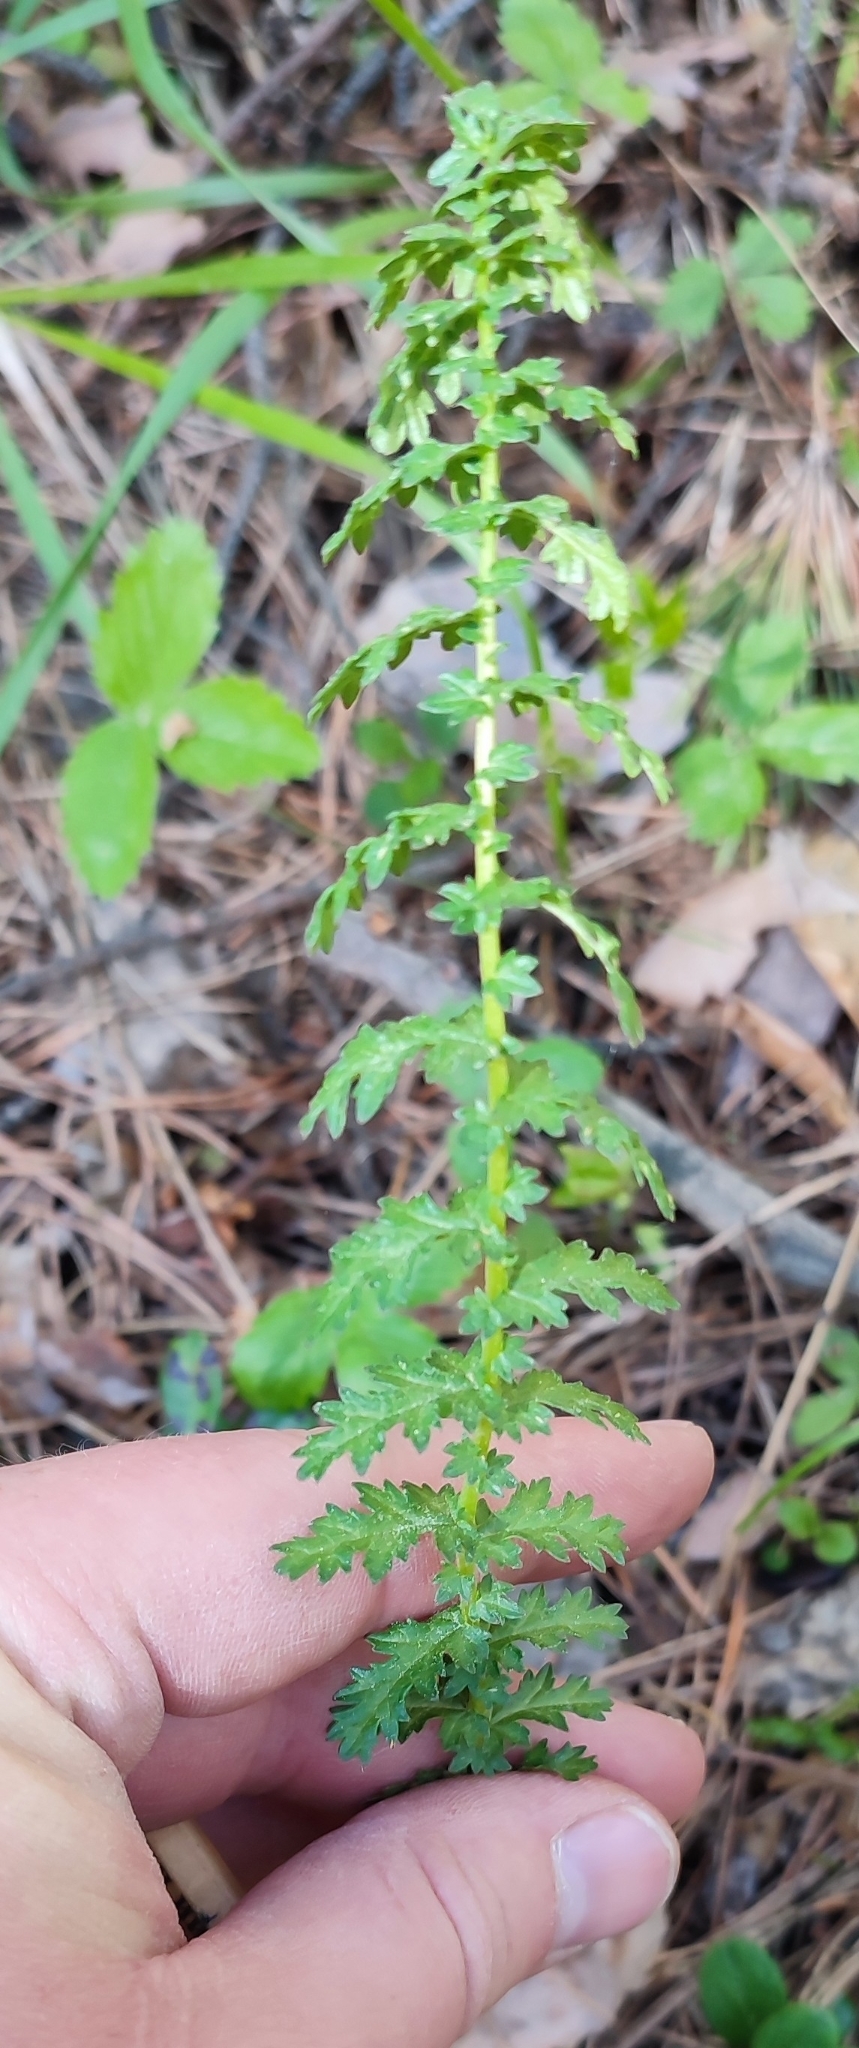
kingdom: Plantae
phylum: Tracheophyta
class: Magnoliopsida
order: Rosales
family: Rosaceae
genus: Filipendula
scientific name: Filipendula vulgaris
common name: Dropwort
